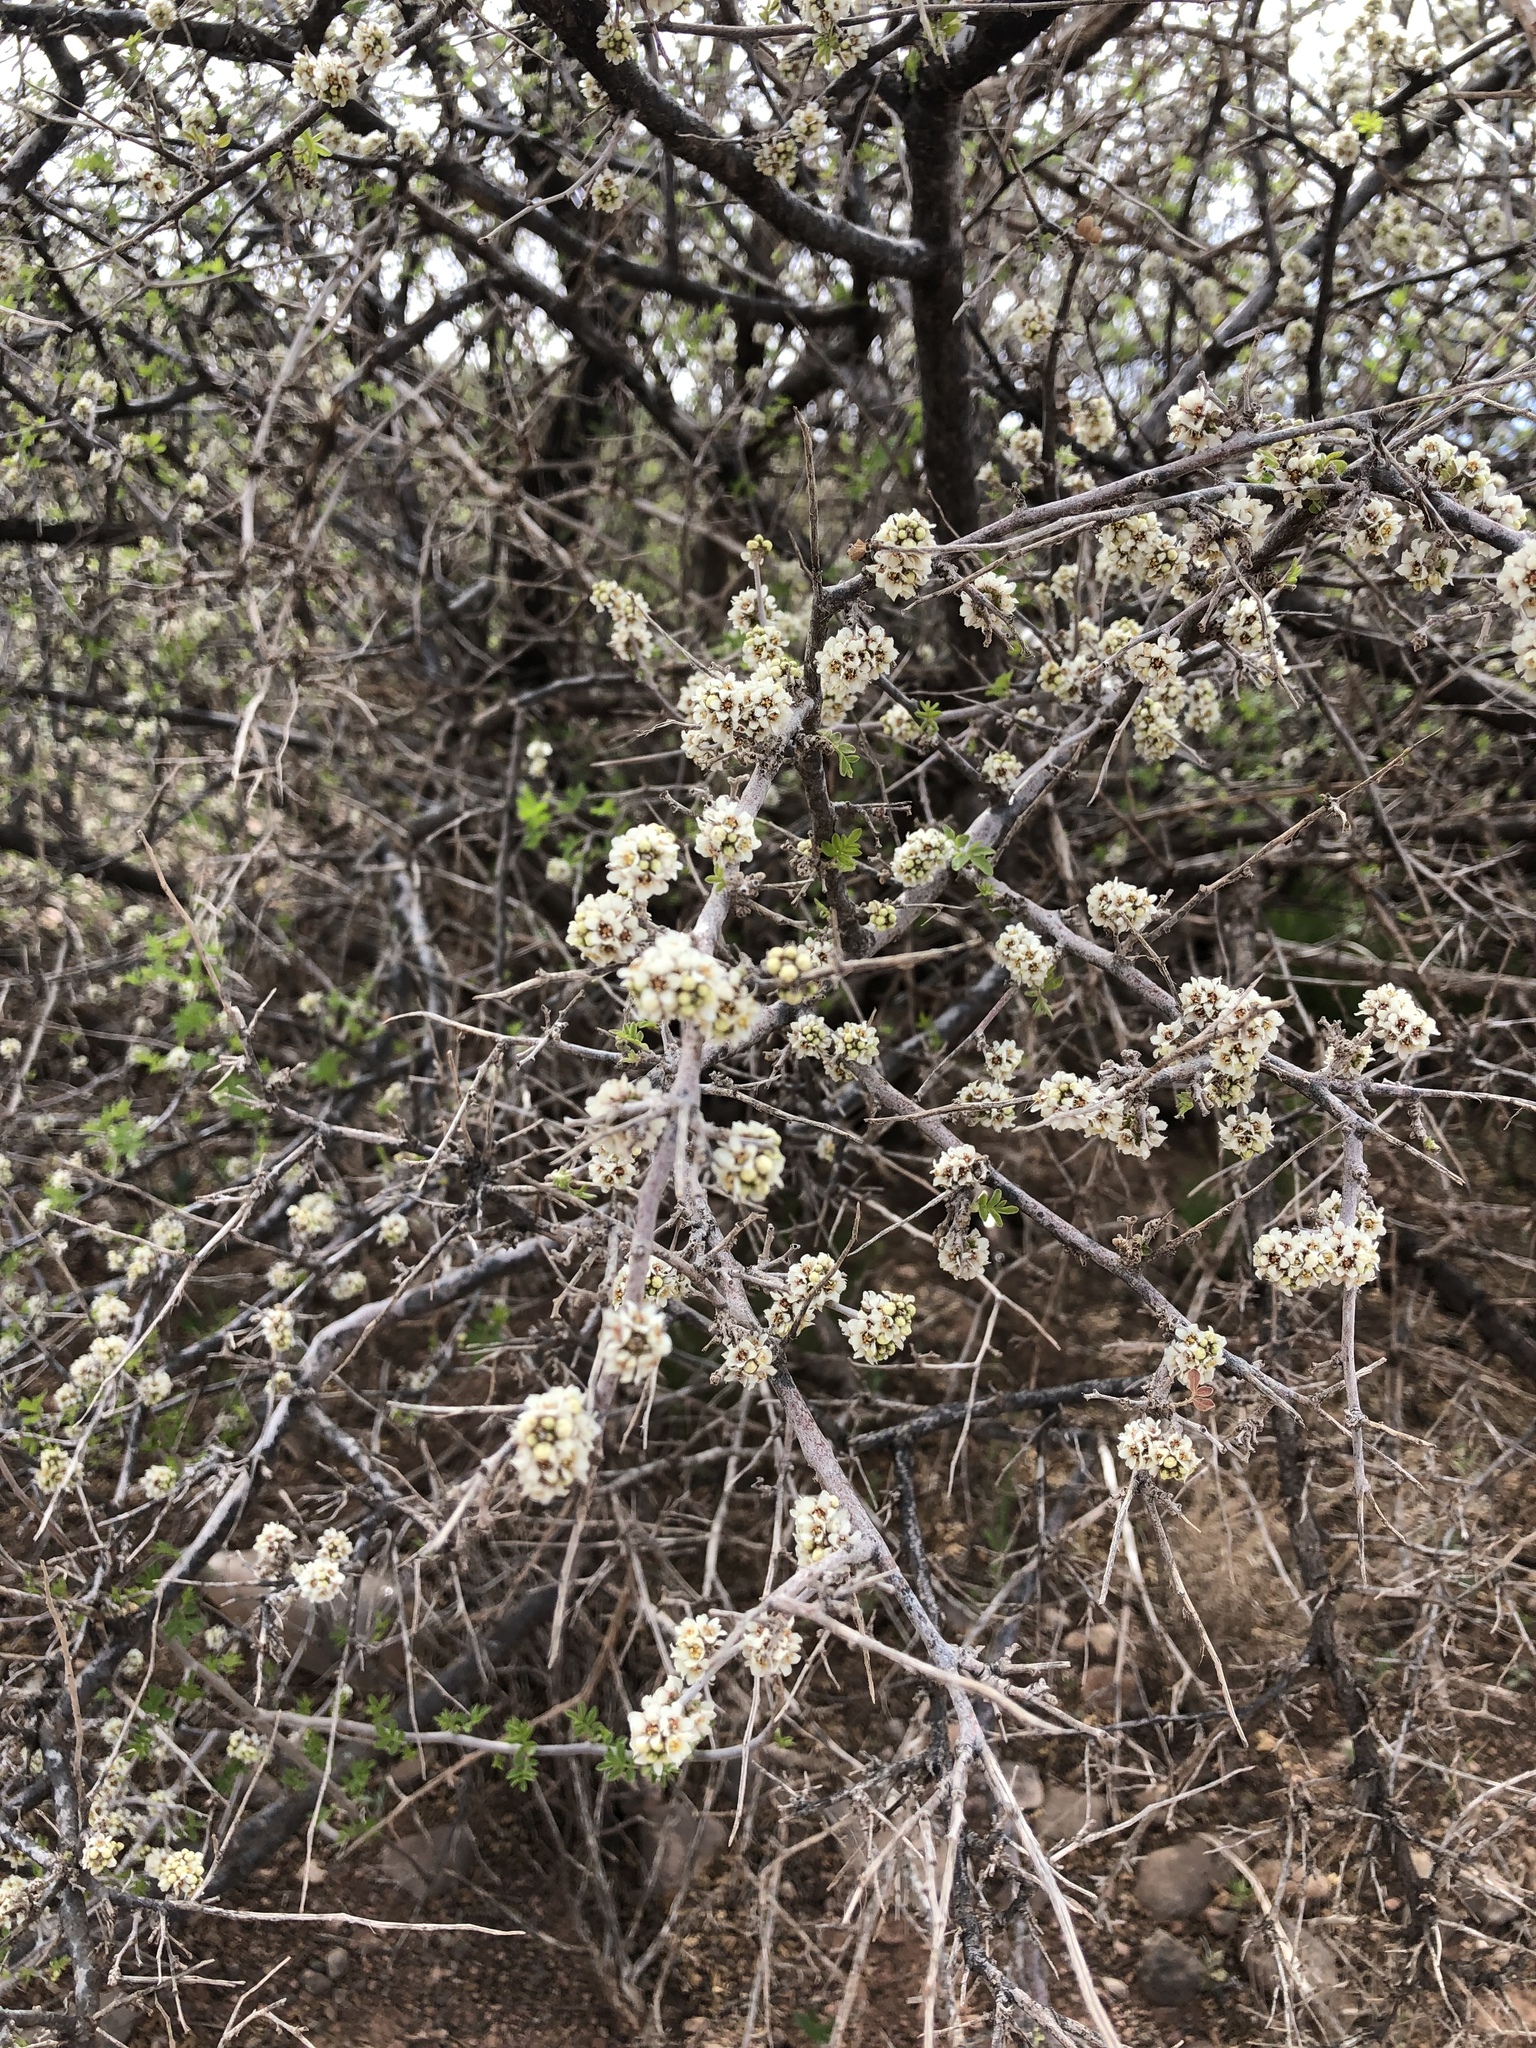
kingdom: Plantae
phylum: Tracheophyta
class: Magnoliopsida
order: Sapindales
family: Anacardiaceae
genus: Rhus
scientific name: Rhus microphylla
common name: Desert sumac
